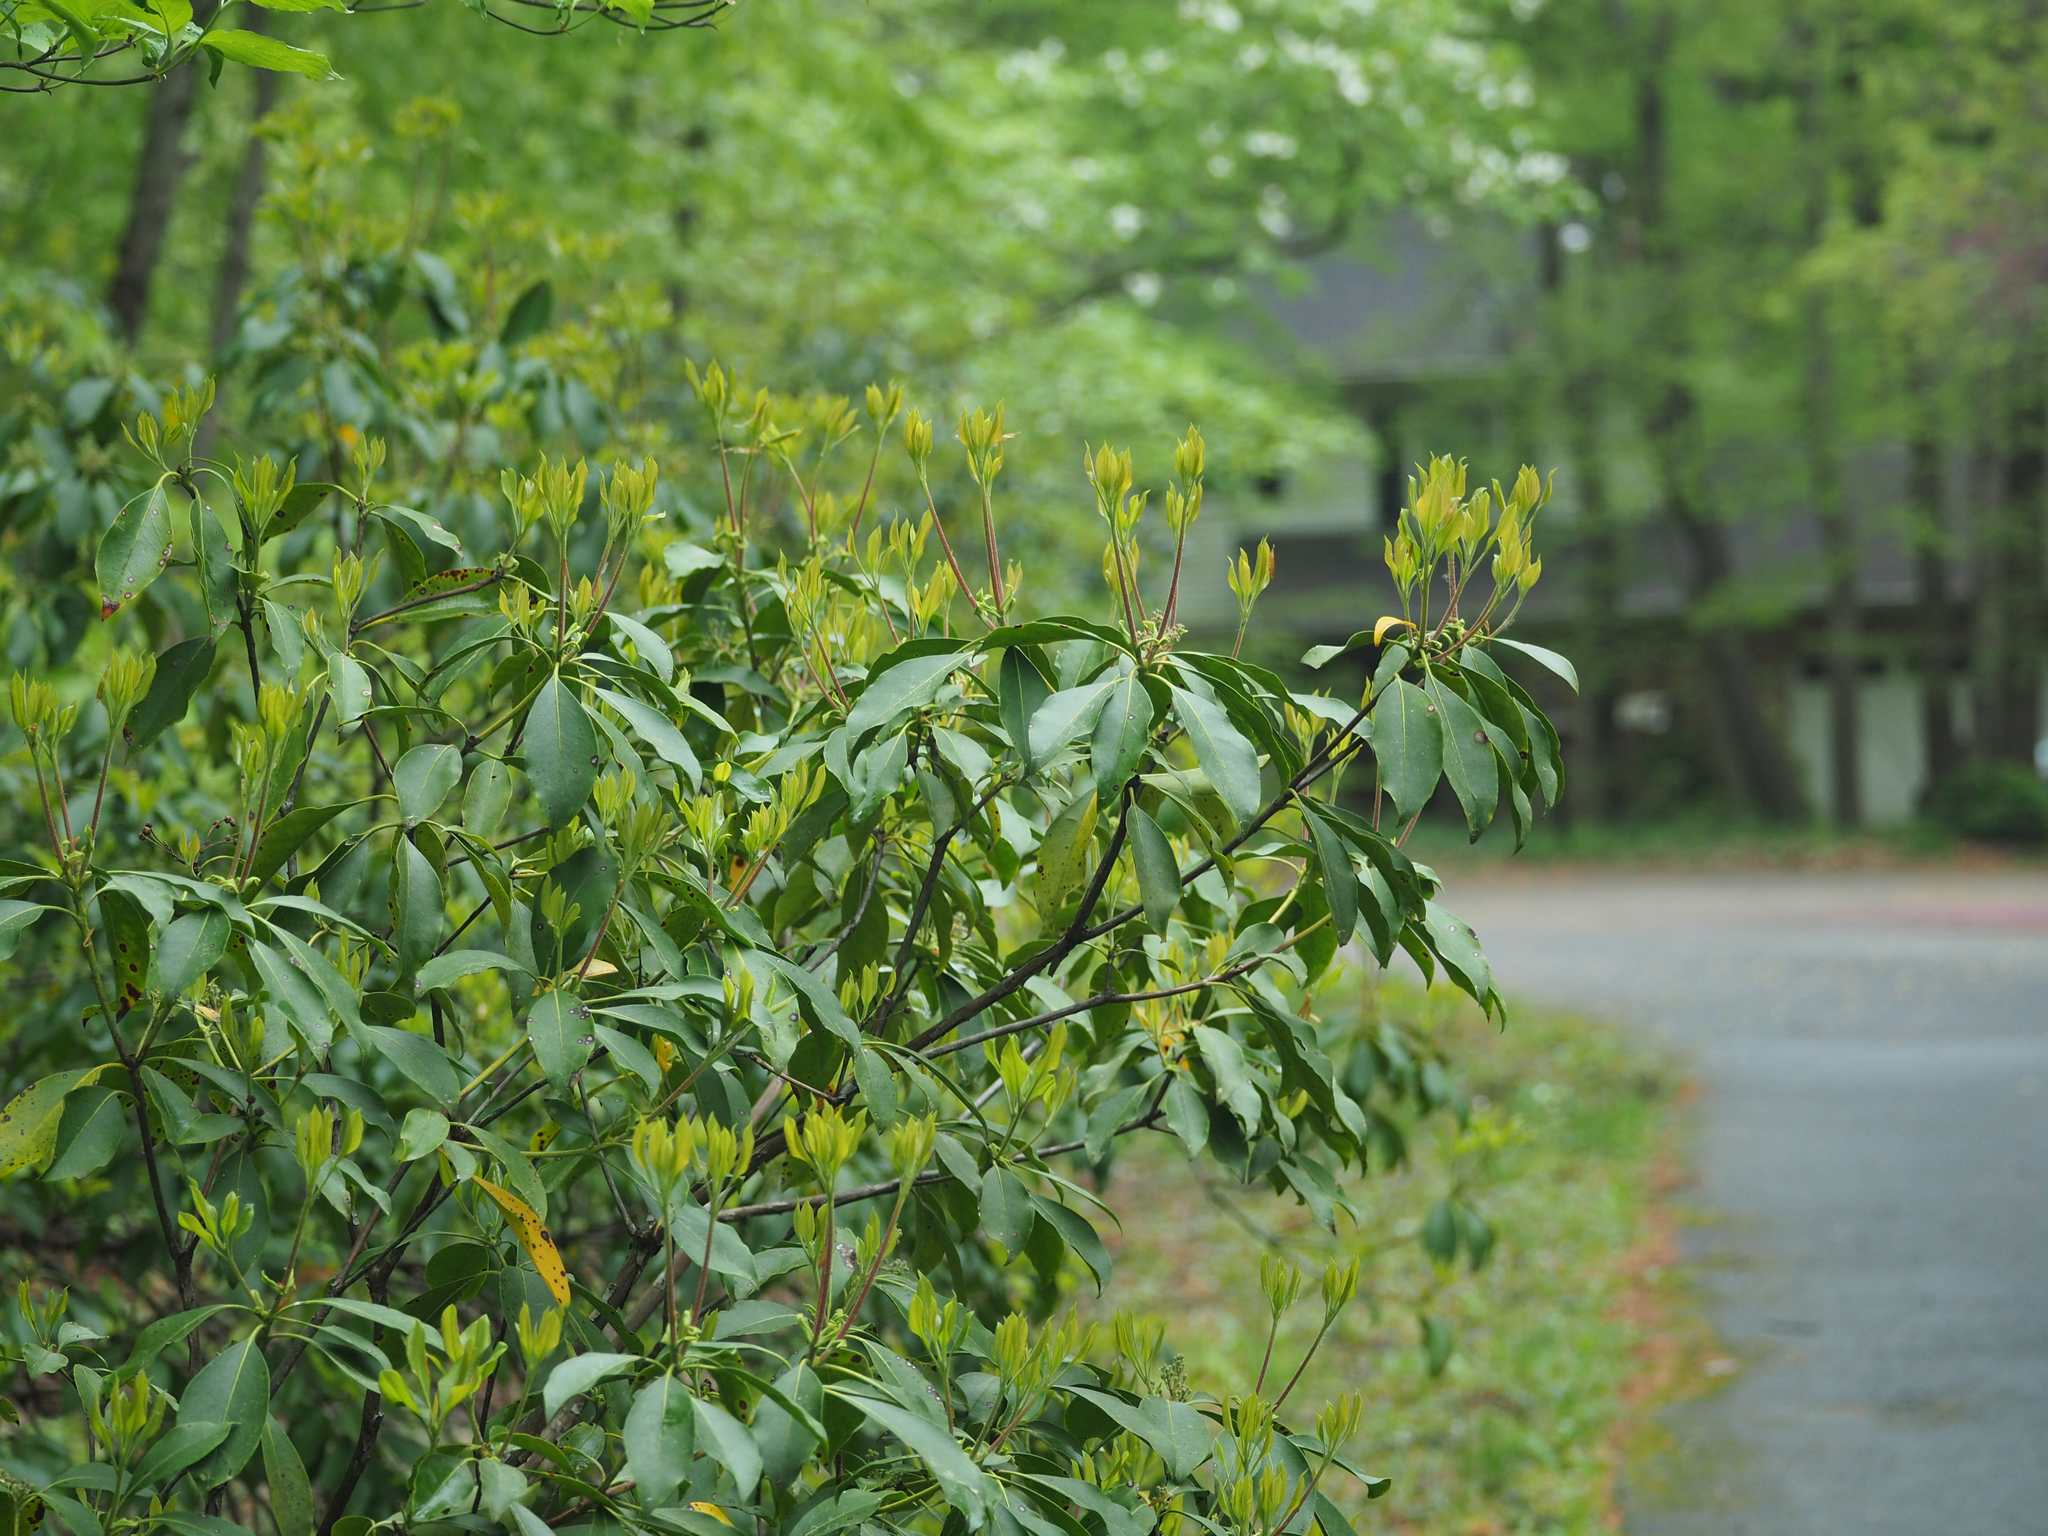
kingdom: Plantae
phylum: Tracheophyta
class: Magnoliopsida
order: Ericales
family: Ericaceae
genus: Kalmia
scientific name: Kalmia latifolia
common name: Mountain-laurel
